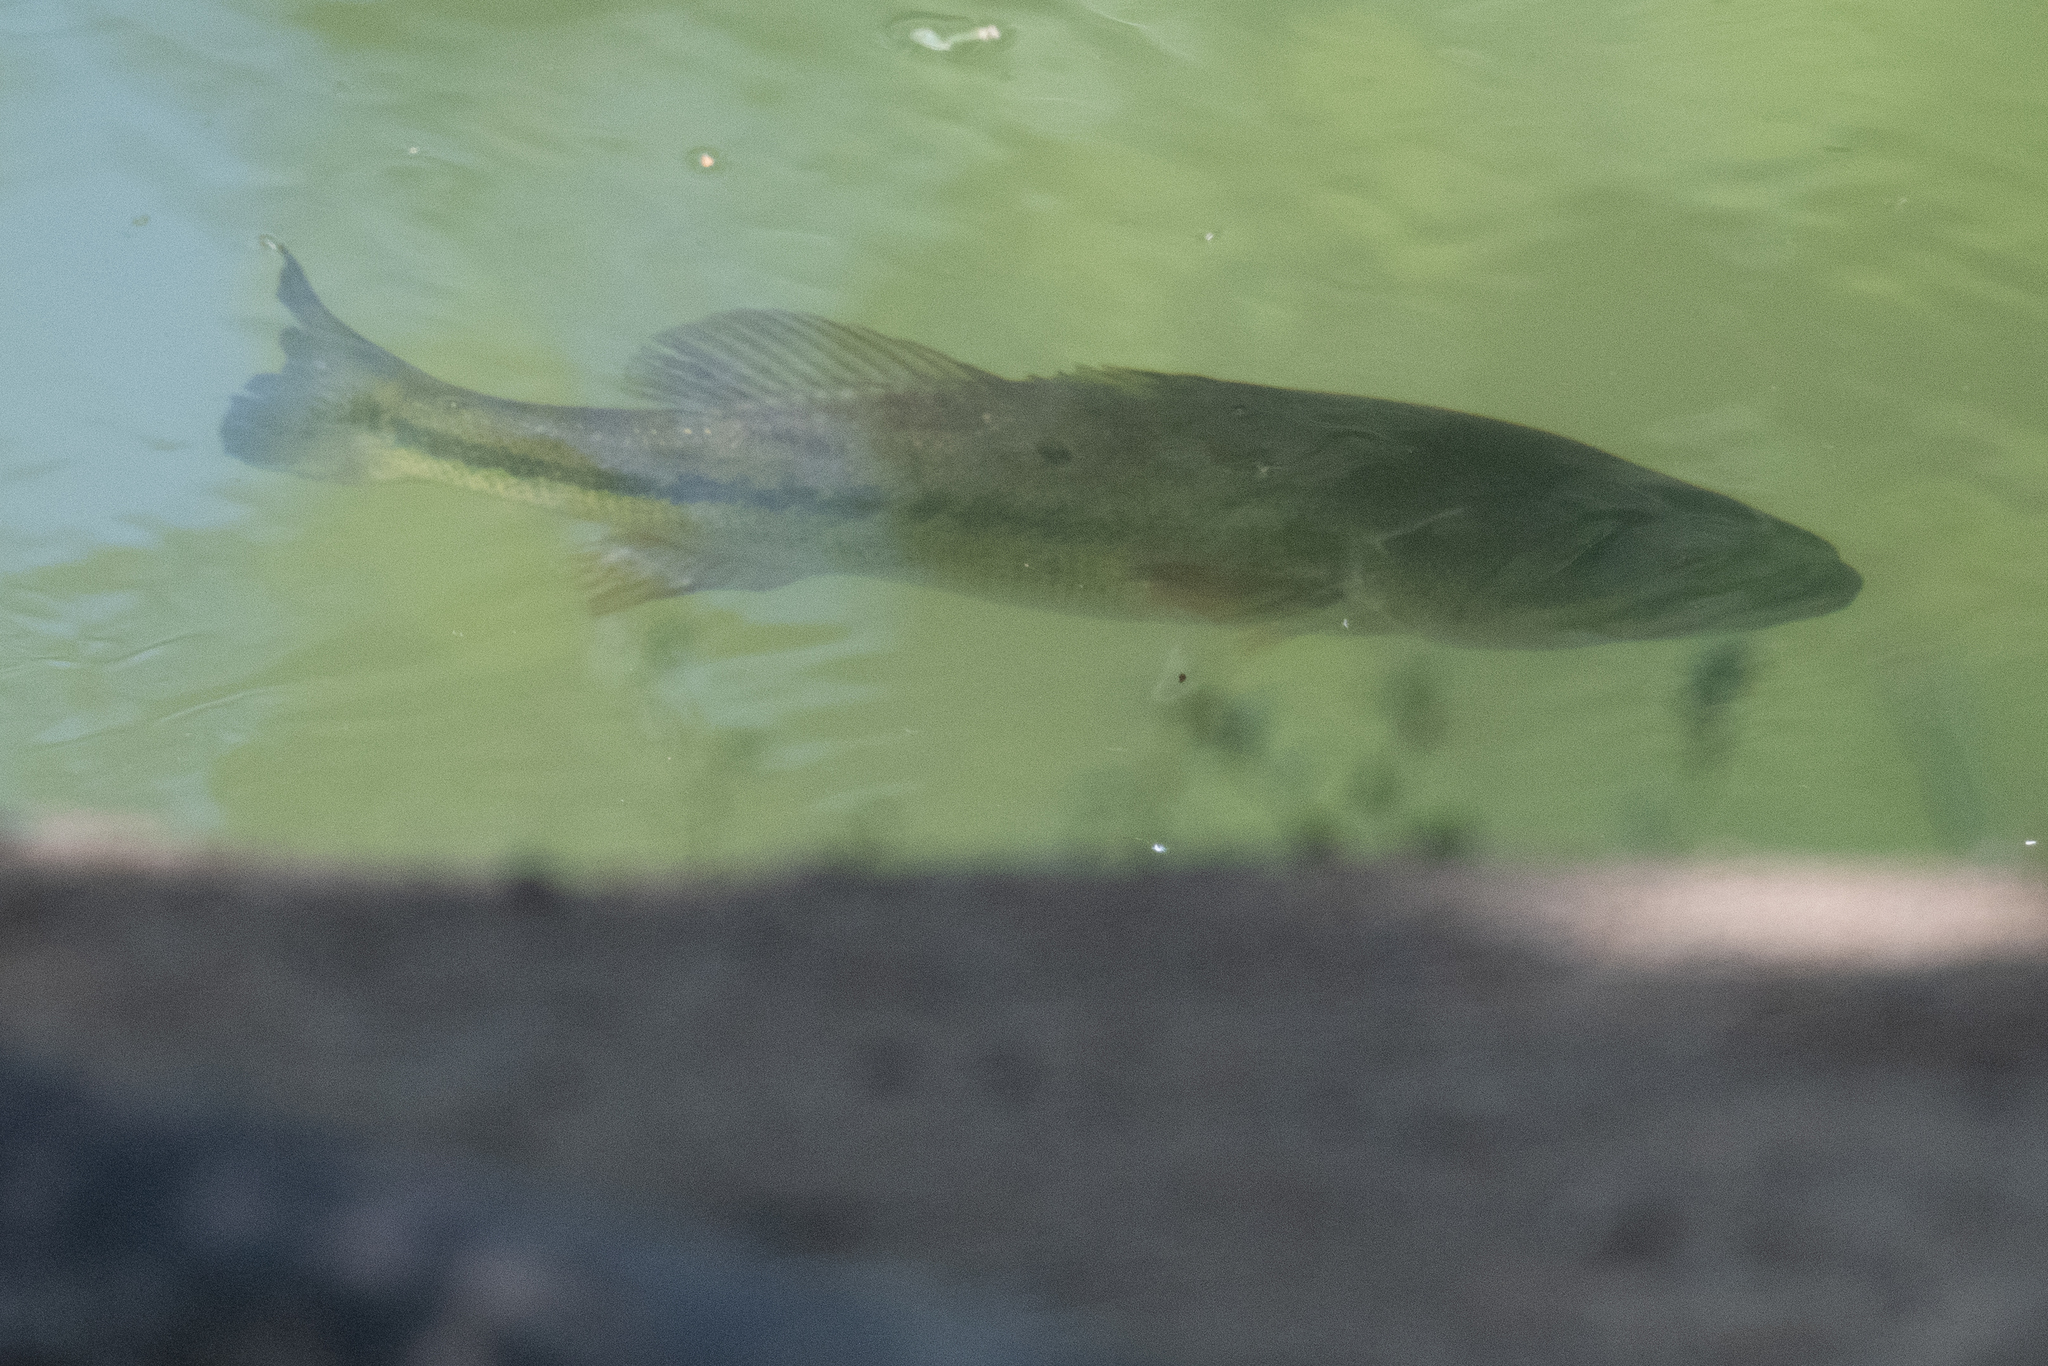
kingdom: Animalia
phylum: Chordata
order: Perciformes
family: Centrarchidae
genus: Micropterus
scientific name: Micropterus
